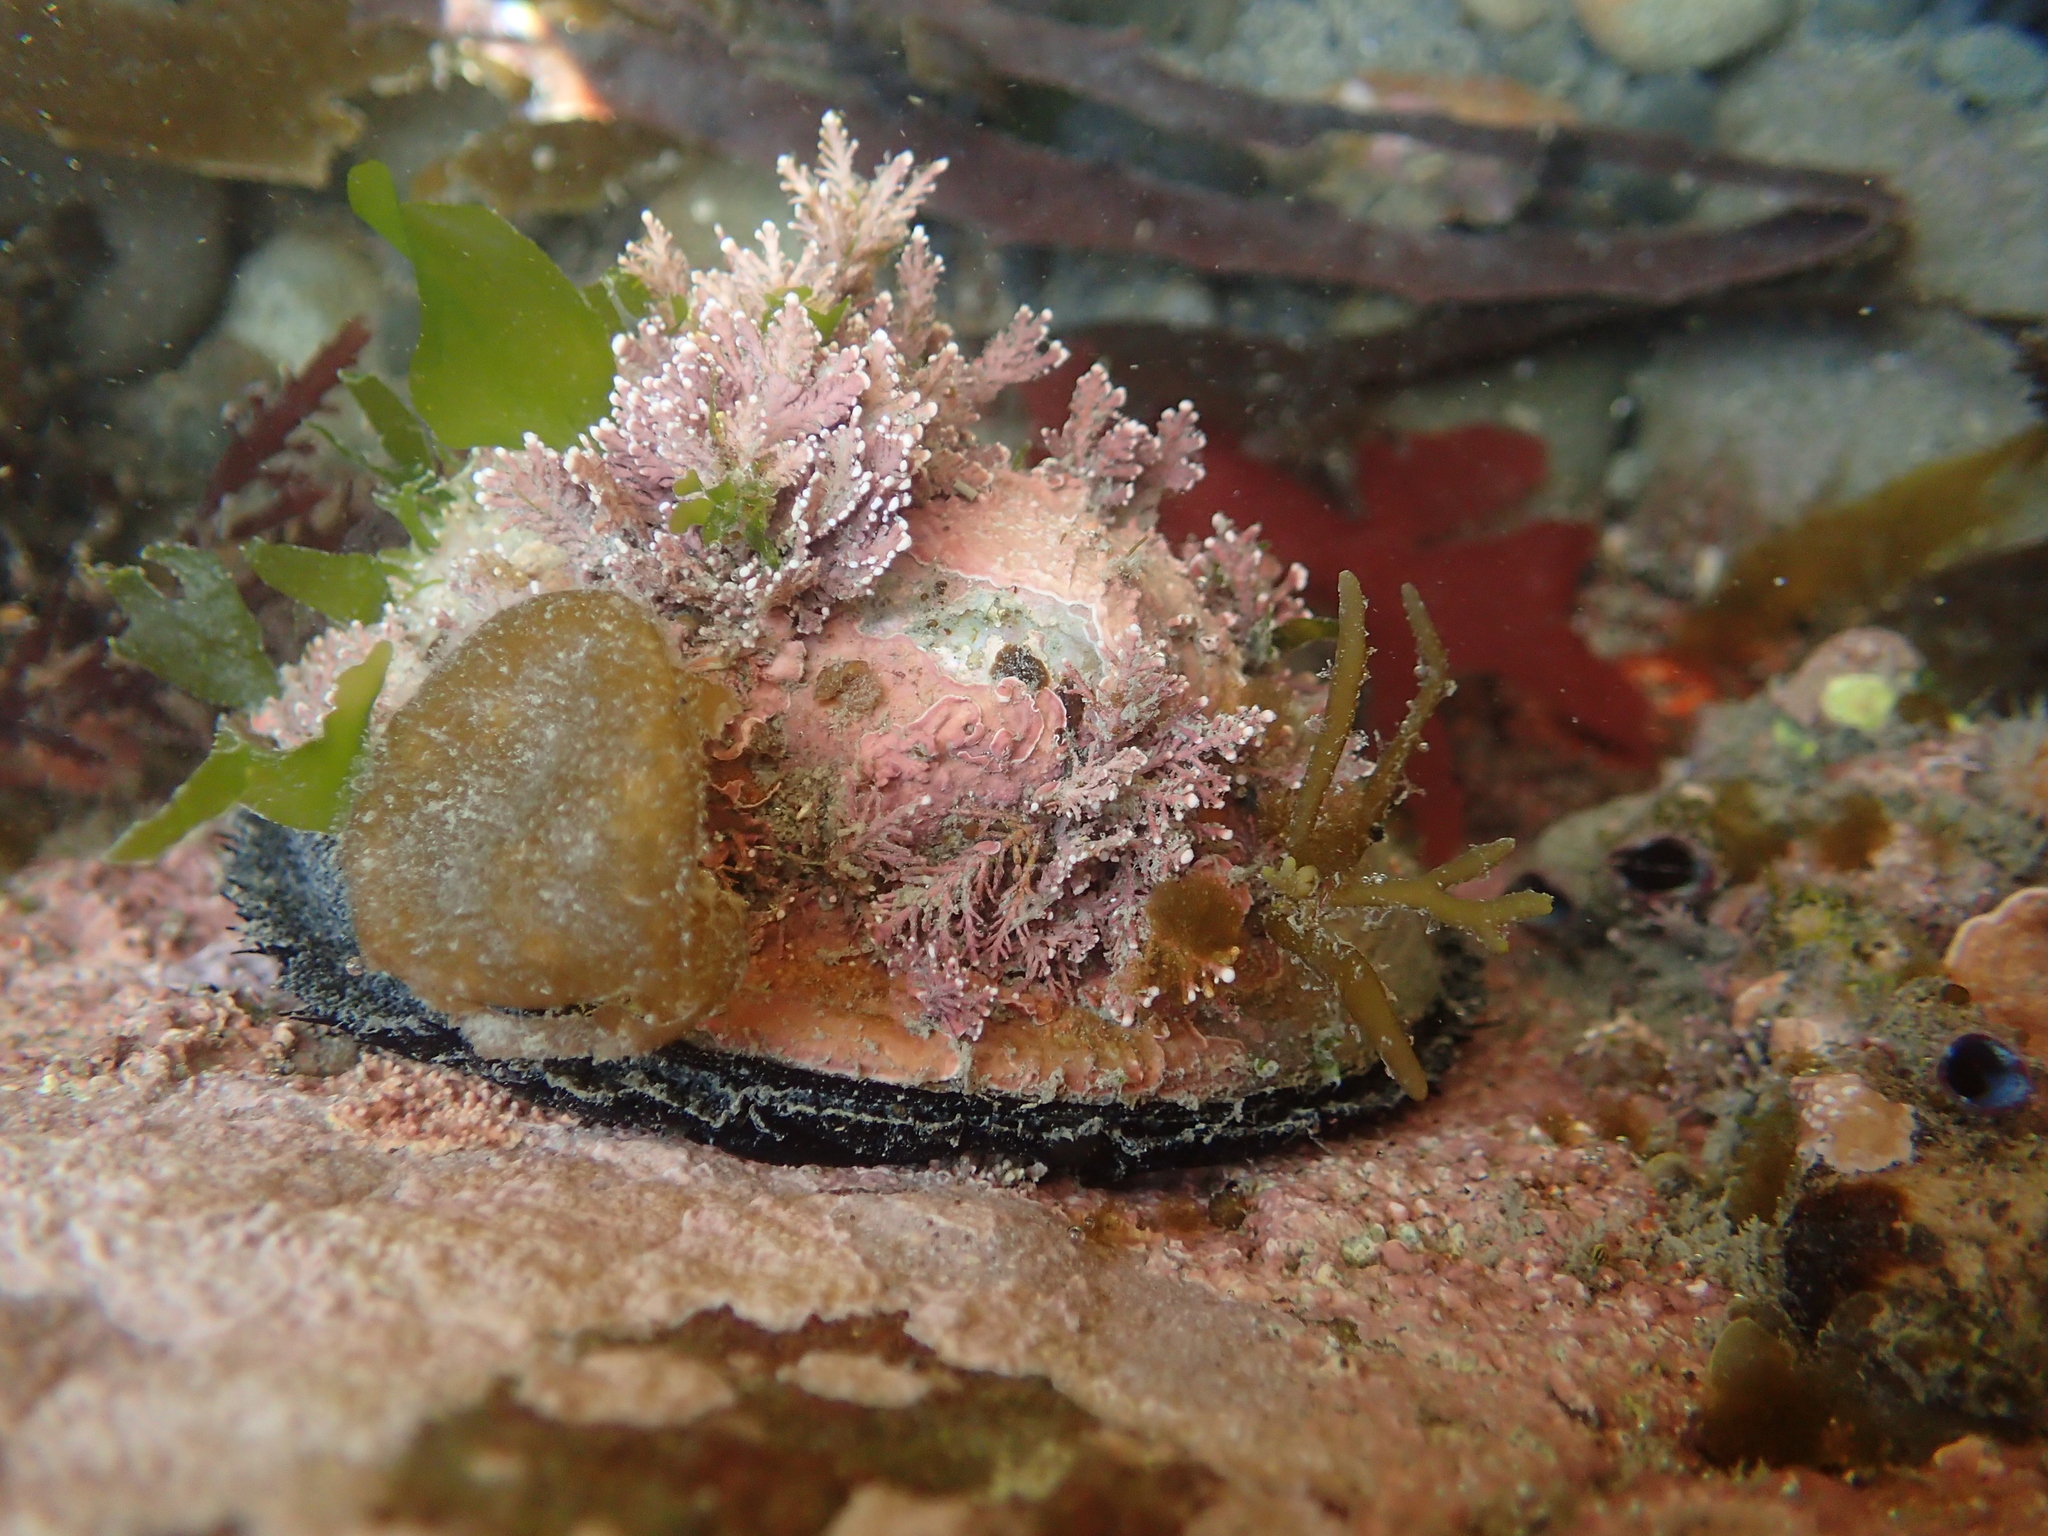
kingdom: Animalia
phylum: Mollusca
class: Gastropoda
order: Lepetellida
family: Haliotidae
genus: Haliotis
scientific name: Haliotis iris
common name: Abalone
